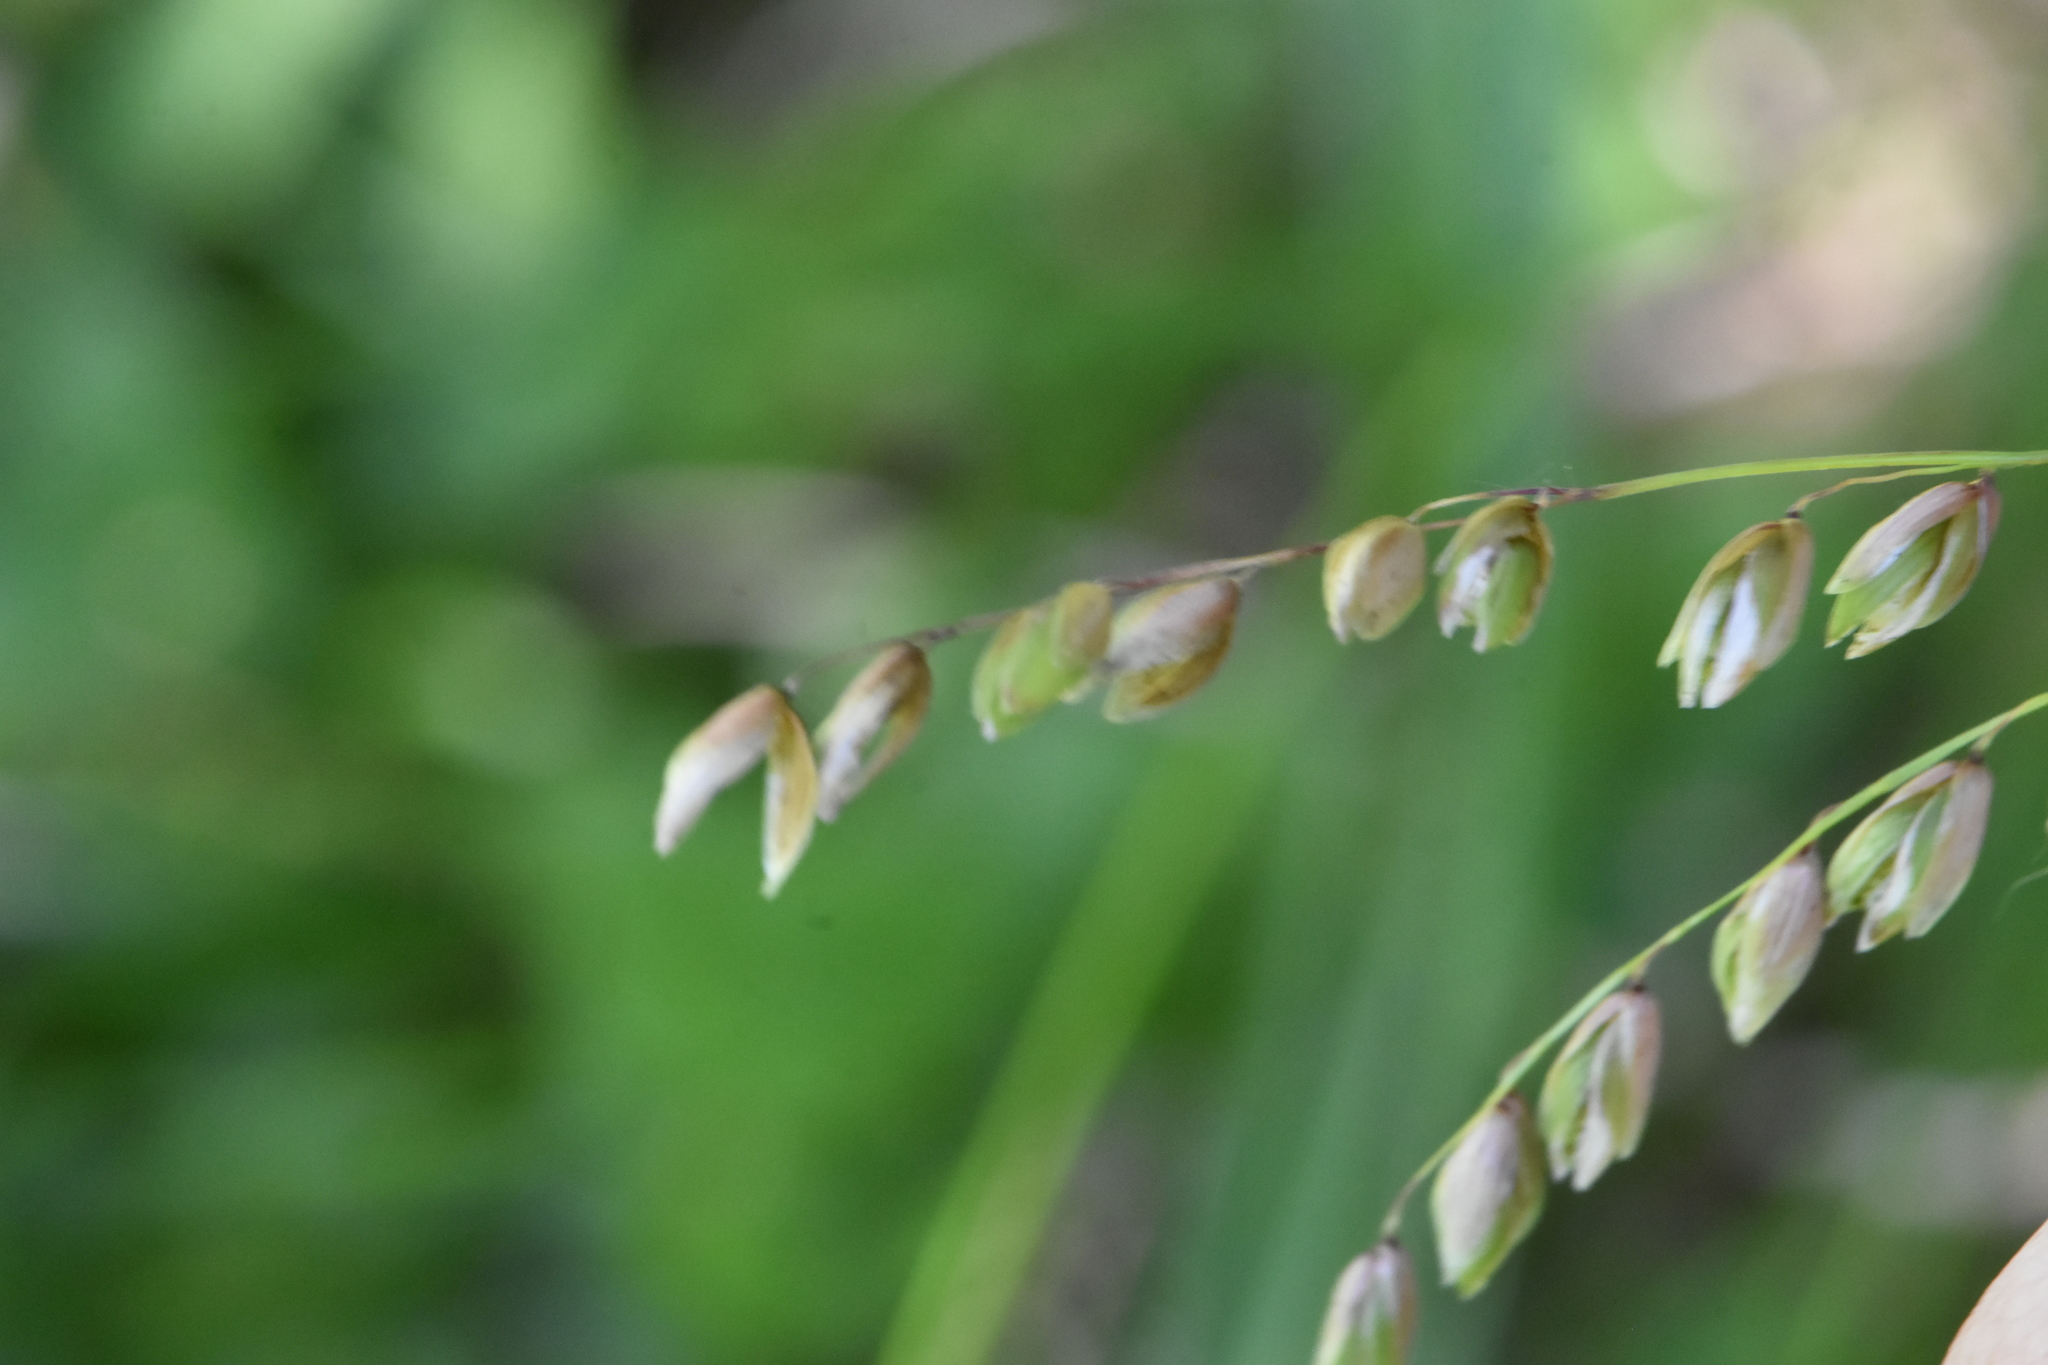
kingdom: Plantae
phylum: Tracheophyta
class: Liliopsida
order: Poales
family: Poaceae
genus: Melica
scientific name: Melica nutans
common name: Mountain melick
